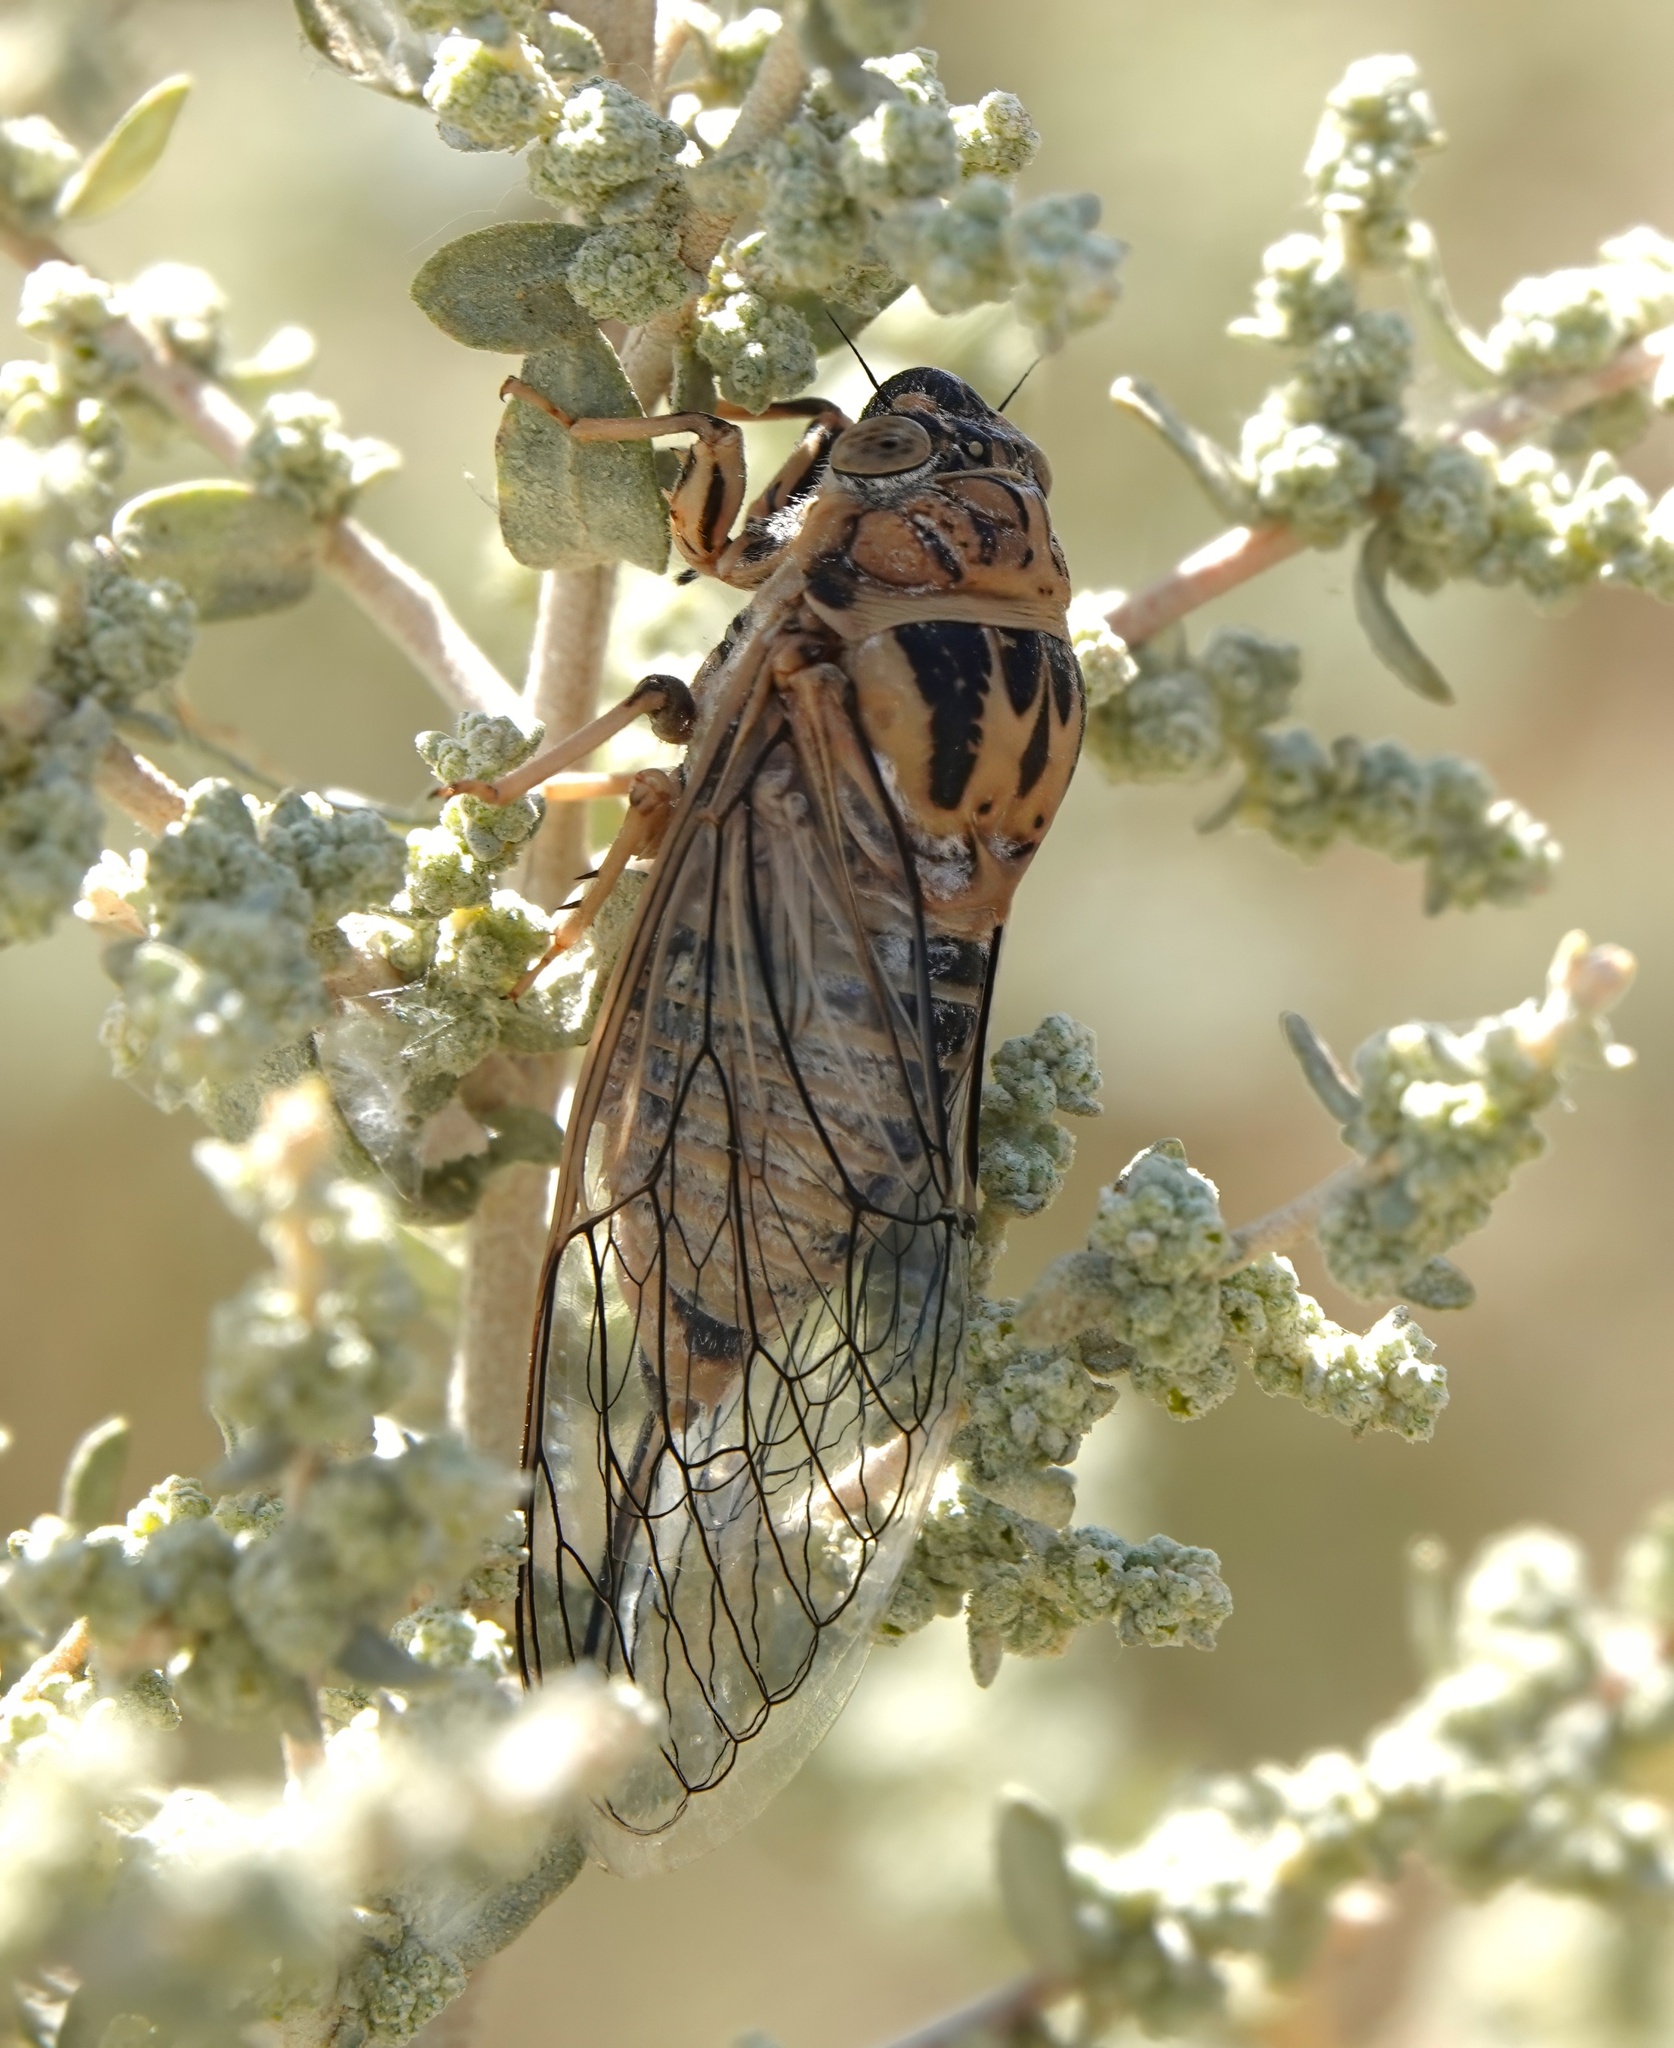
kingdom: Animalia
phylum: Arthropoda
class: Insecta
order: Hemiptera
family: Cicadidae
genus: Clidophleps
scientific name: Clidophleps vagans
